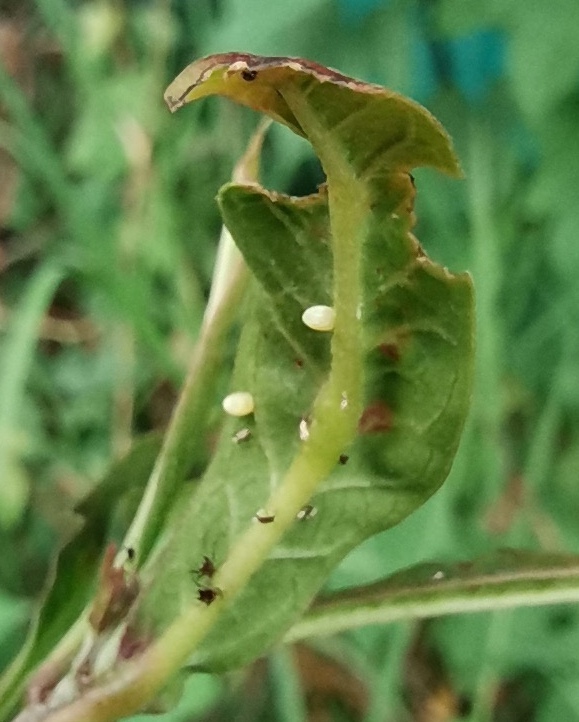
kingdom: Animalia
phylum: Arthropoda
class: Insecta
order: Lepidoptera
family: Nymphalidae
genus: Danaus
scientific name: Danaus plexippus
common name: Monarch
